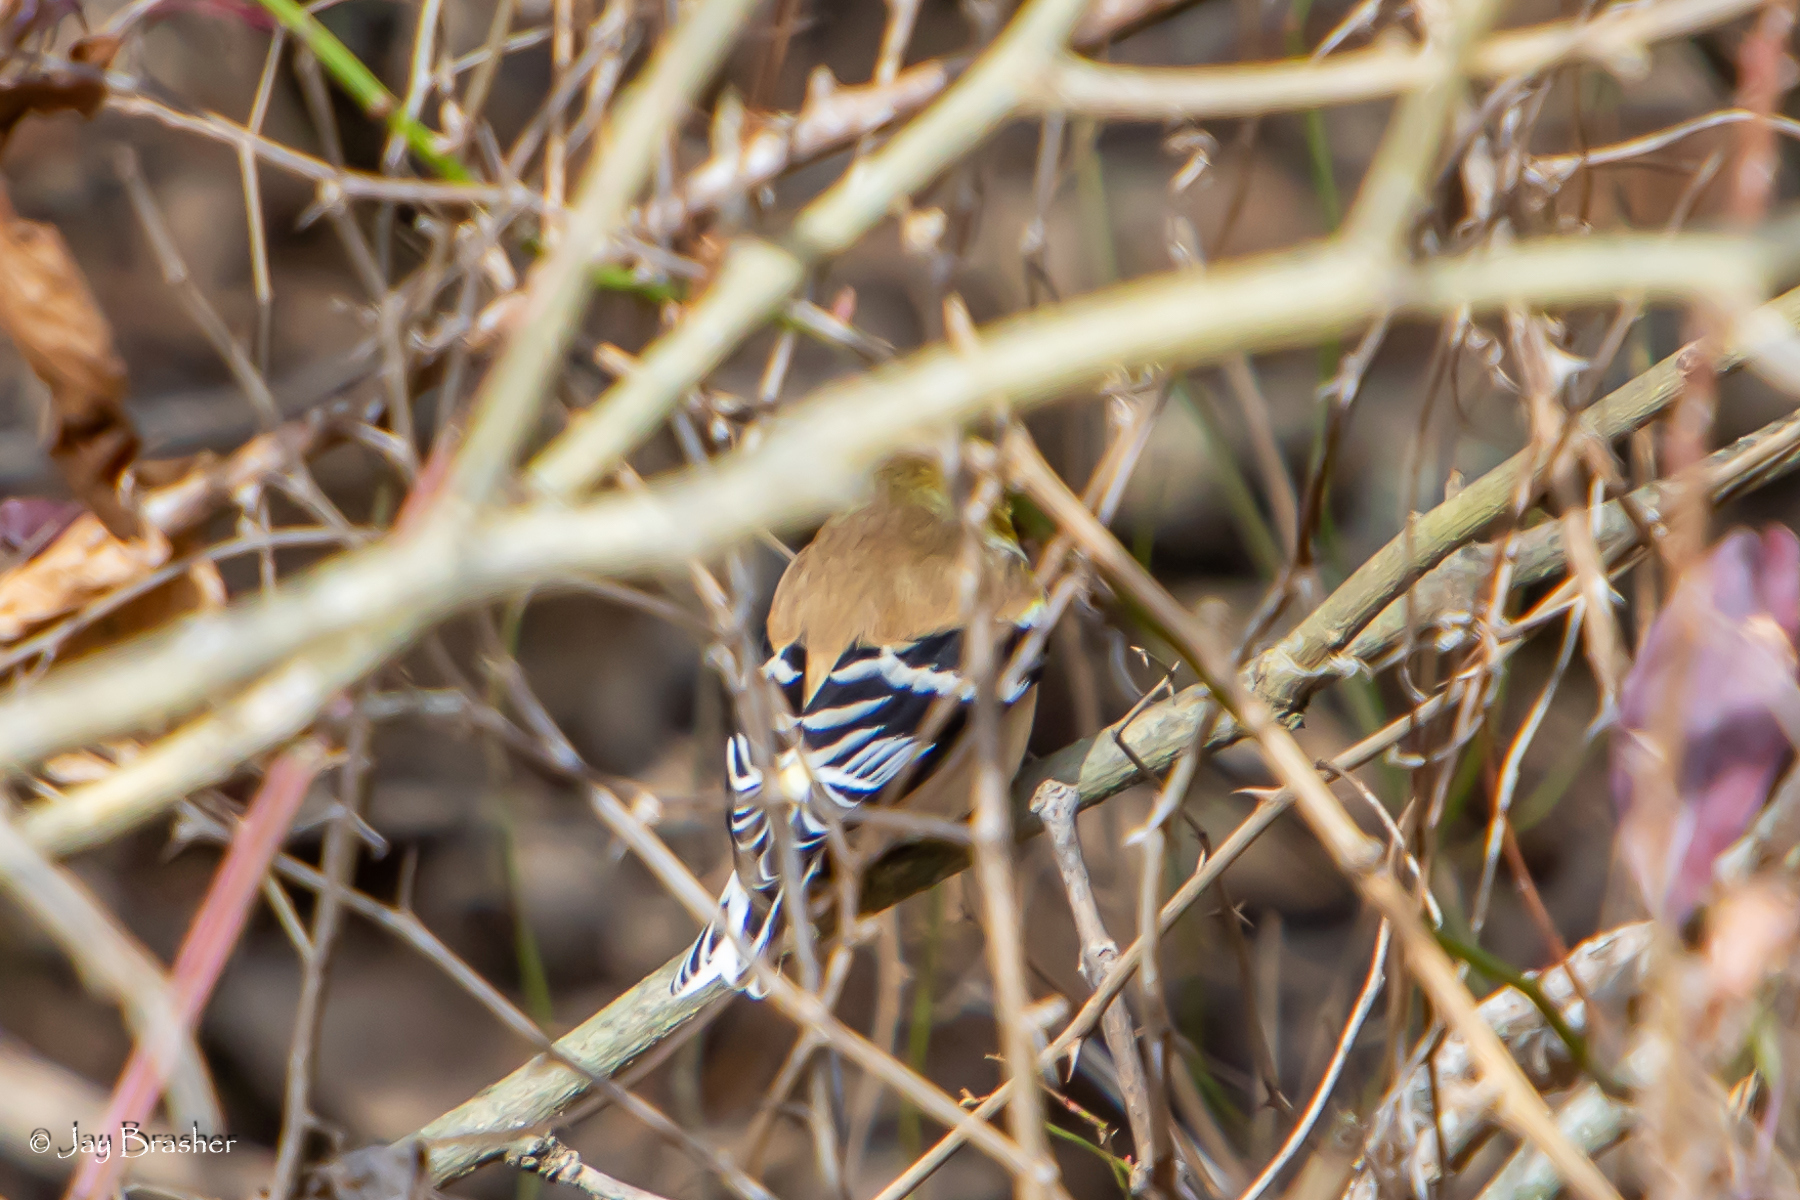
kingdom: Animalia
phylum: Chordata
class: Aves
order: Passeriformes
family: Fringillidae
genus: Spinus
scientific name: Spinus tristis
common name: American goldfinch
